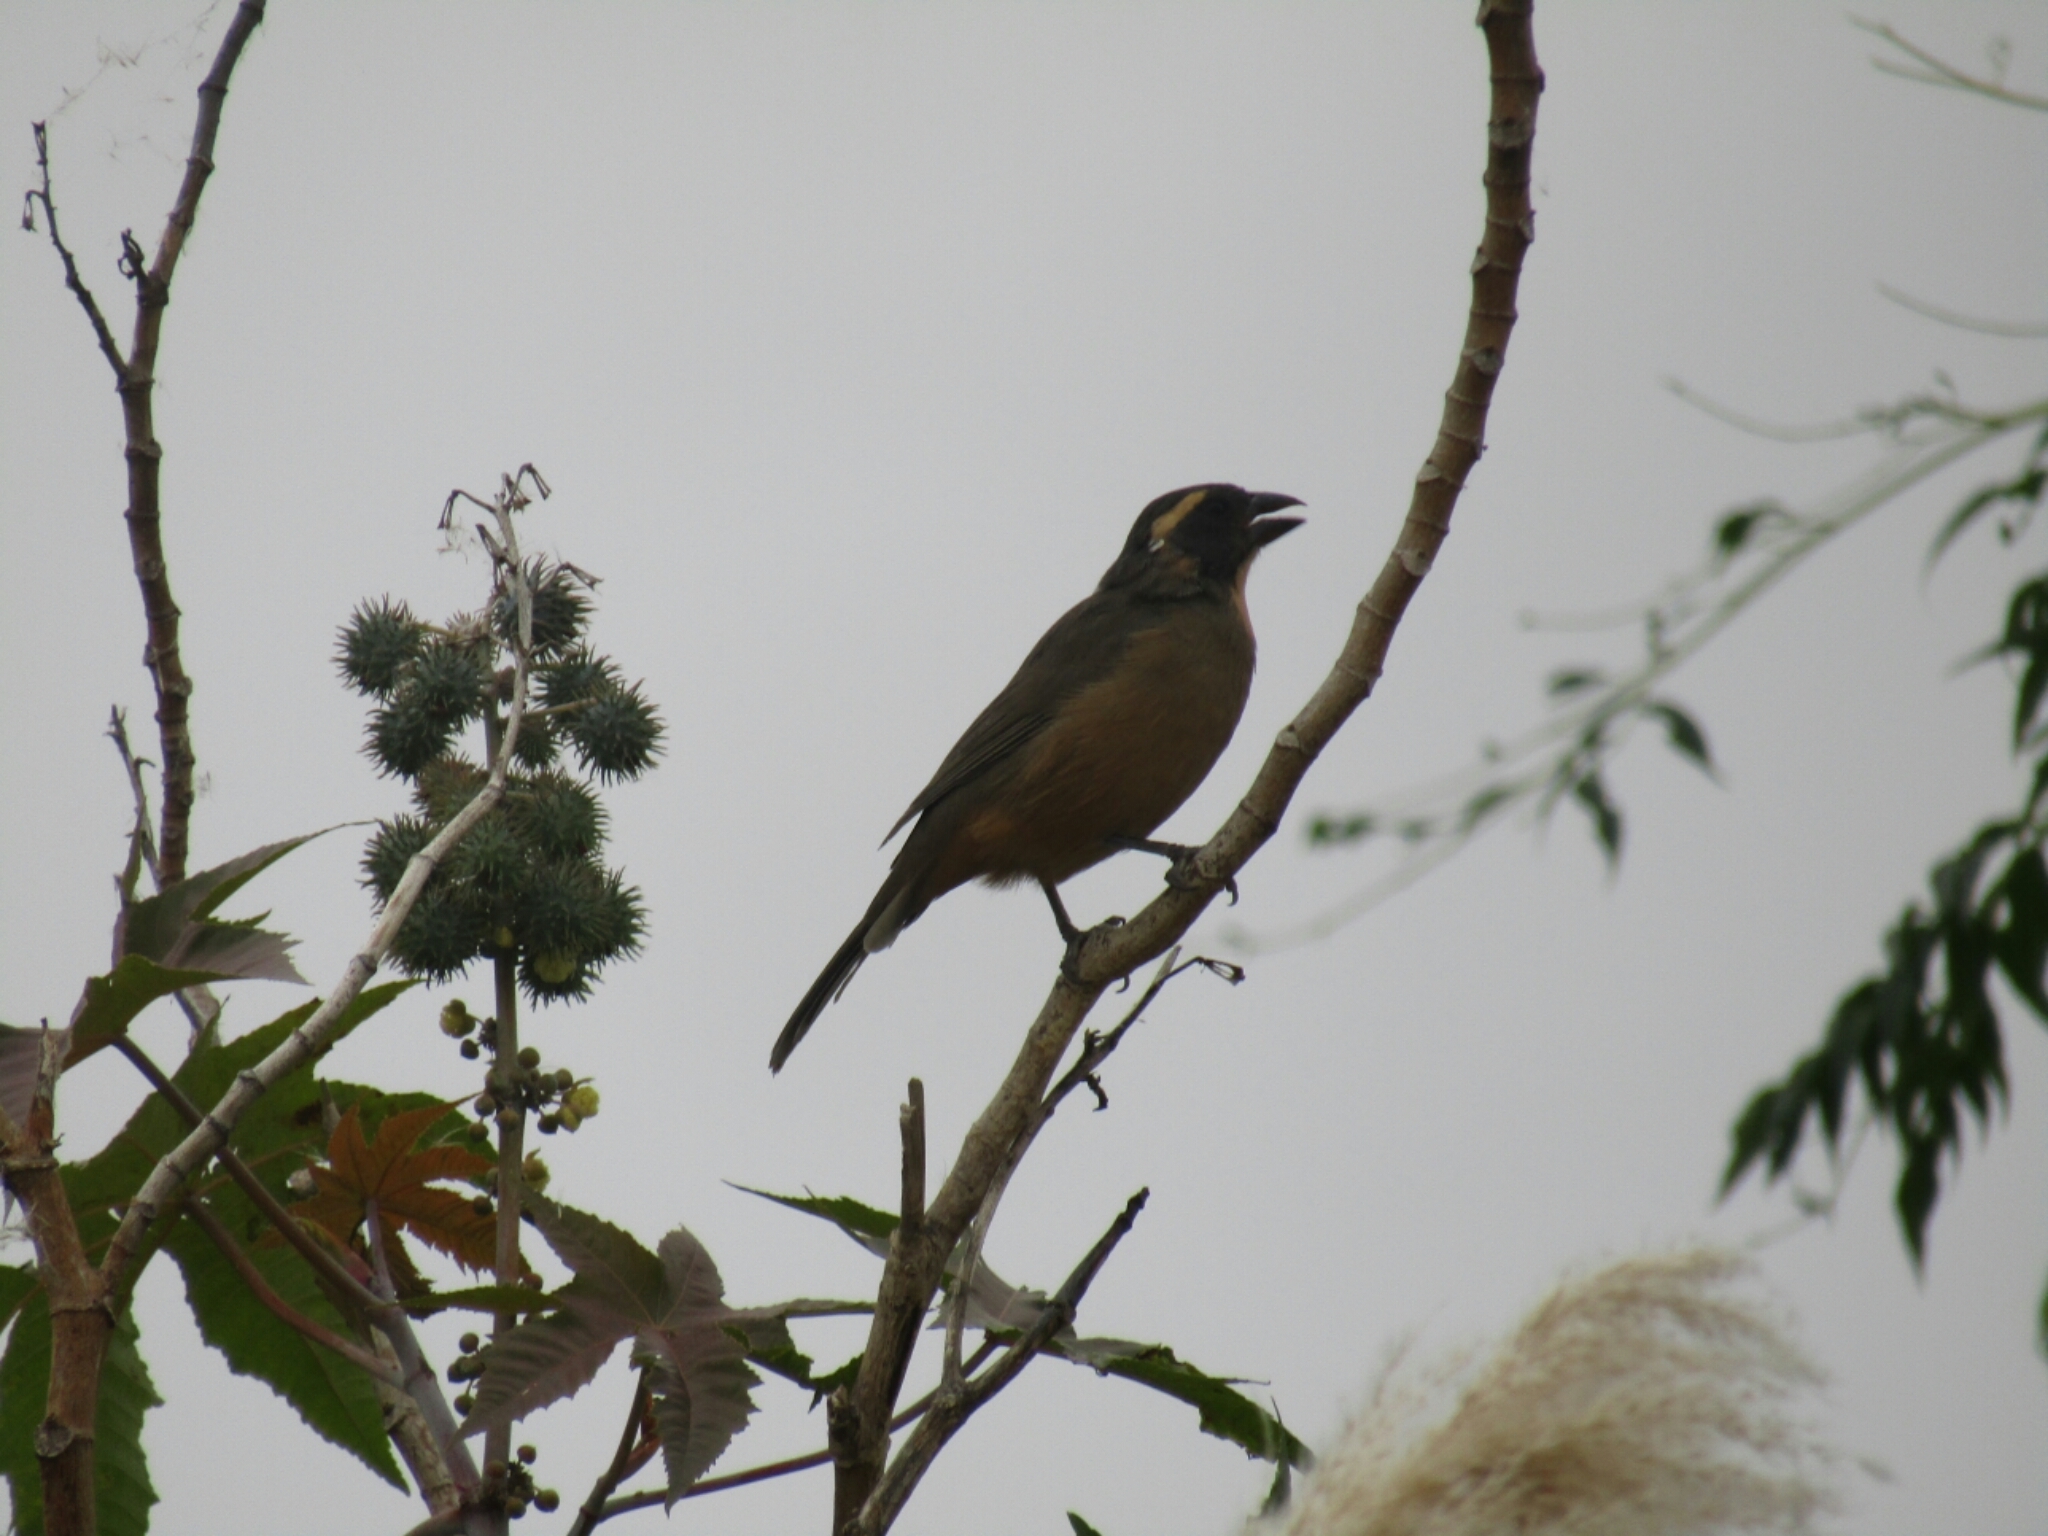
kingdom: Animalia
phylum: Chordata
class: Aves
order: Passeriformes
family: Thraupidae
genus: Saltator
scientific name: Saltator aurantiirostris
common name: Golden-billed saltator
